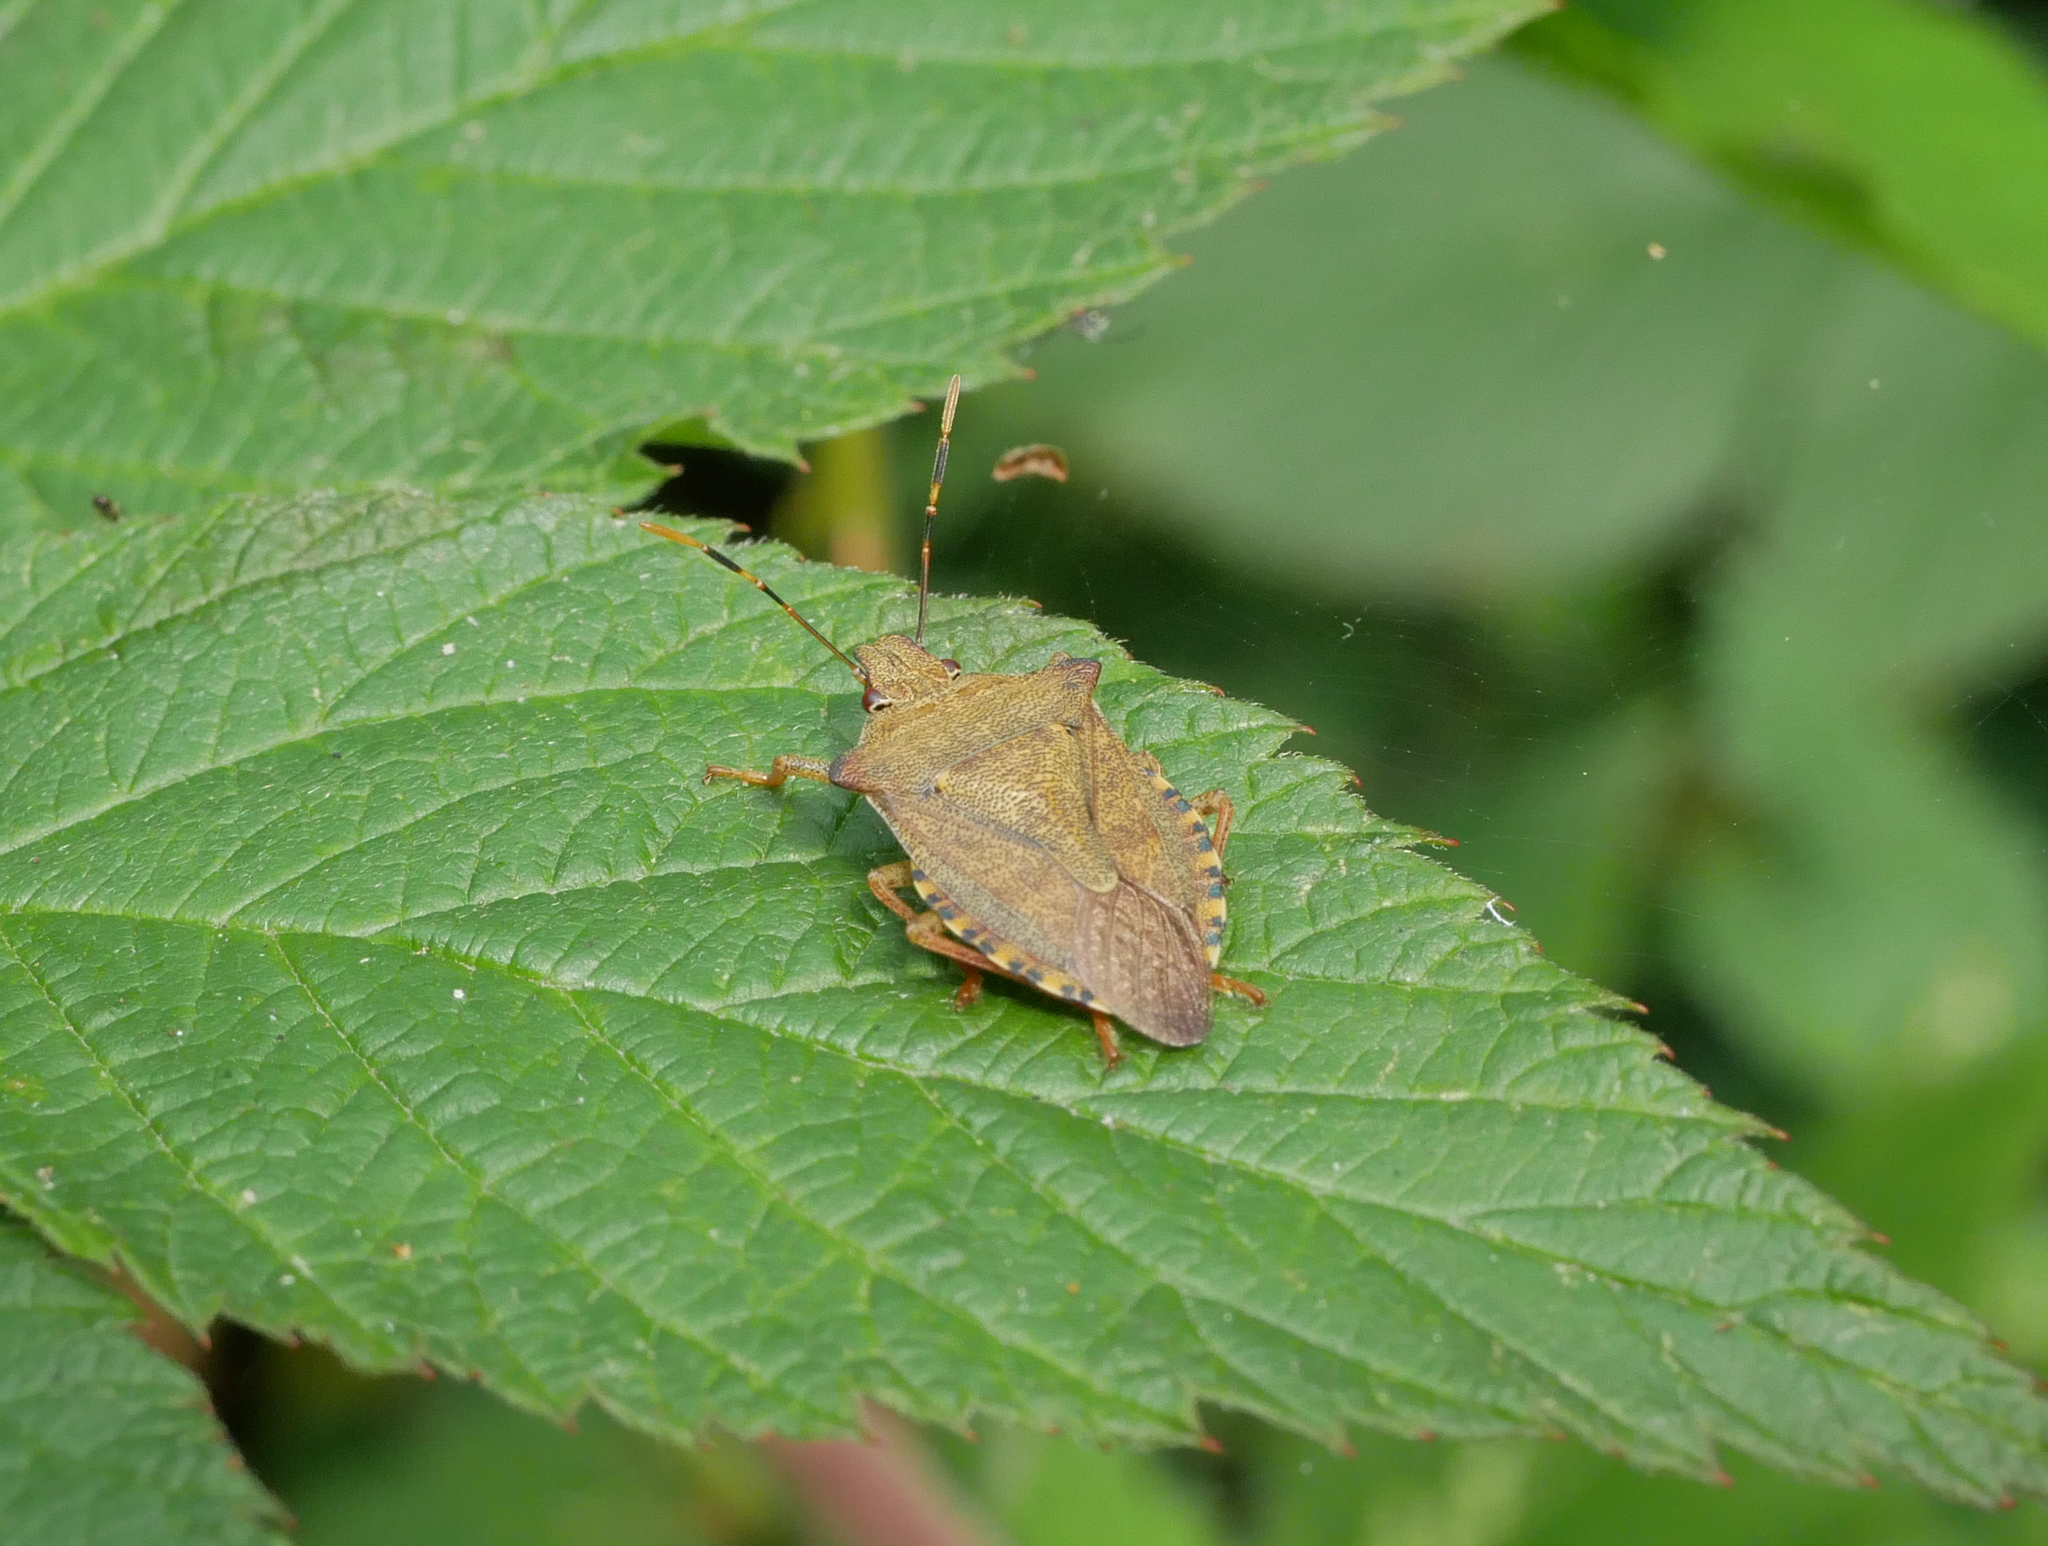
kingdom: Animalia
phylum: Arthropoda
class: Insecta
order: Hemiptera
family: Pentatomidae
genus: Arma
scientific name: Arma custos
